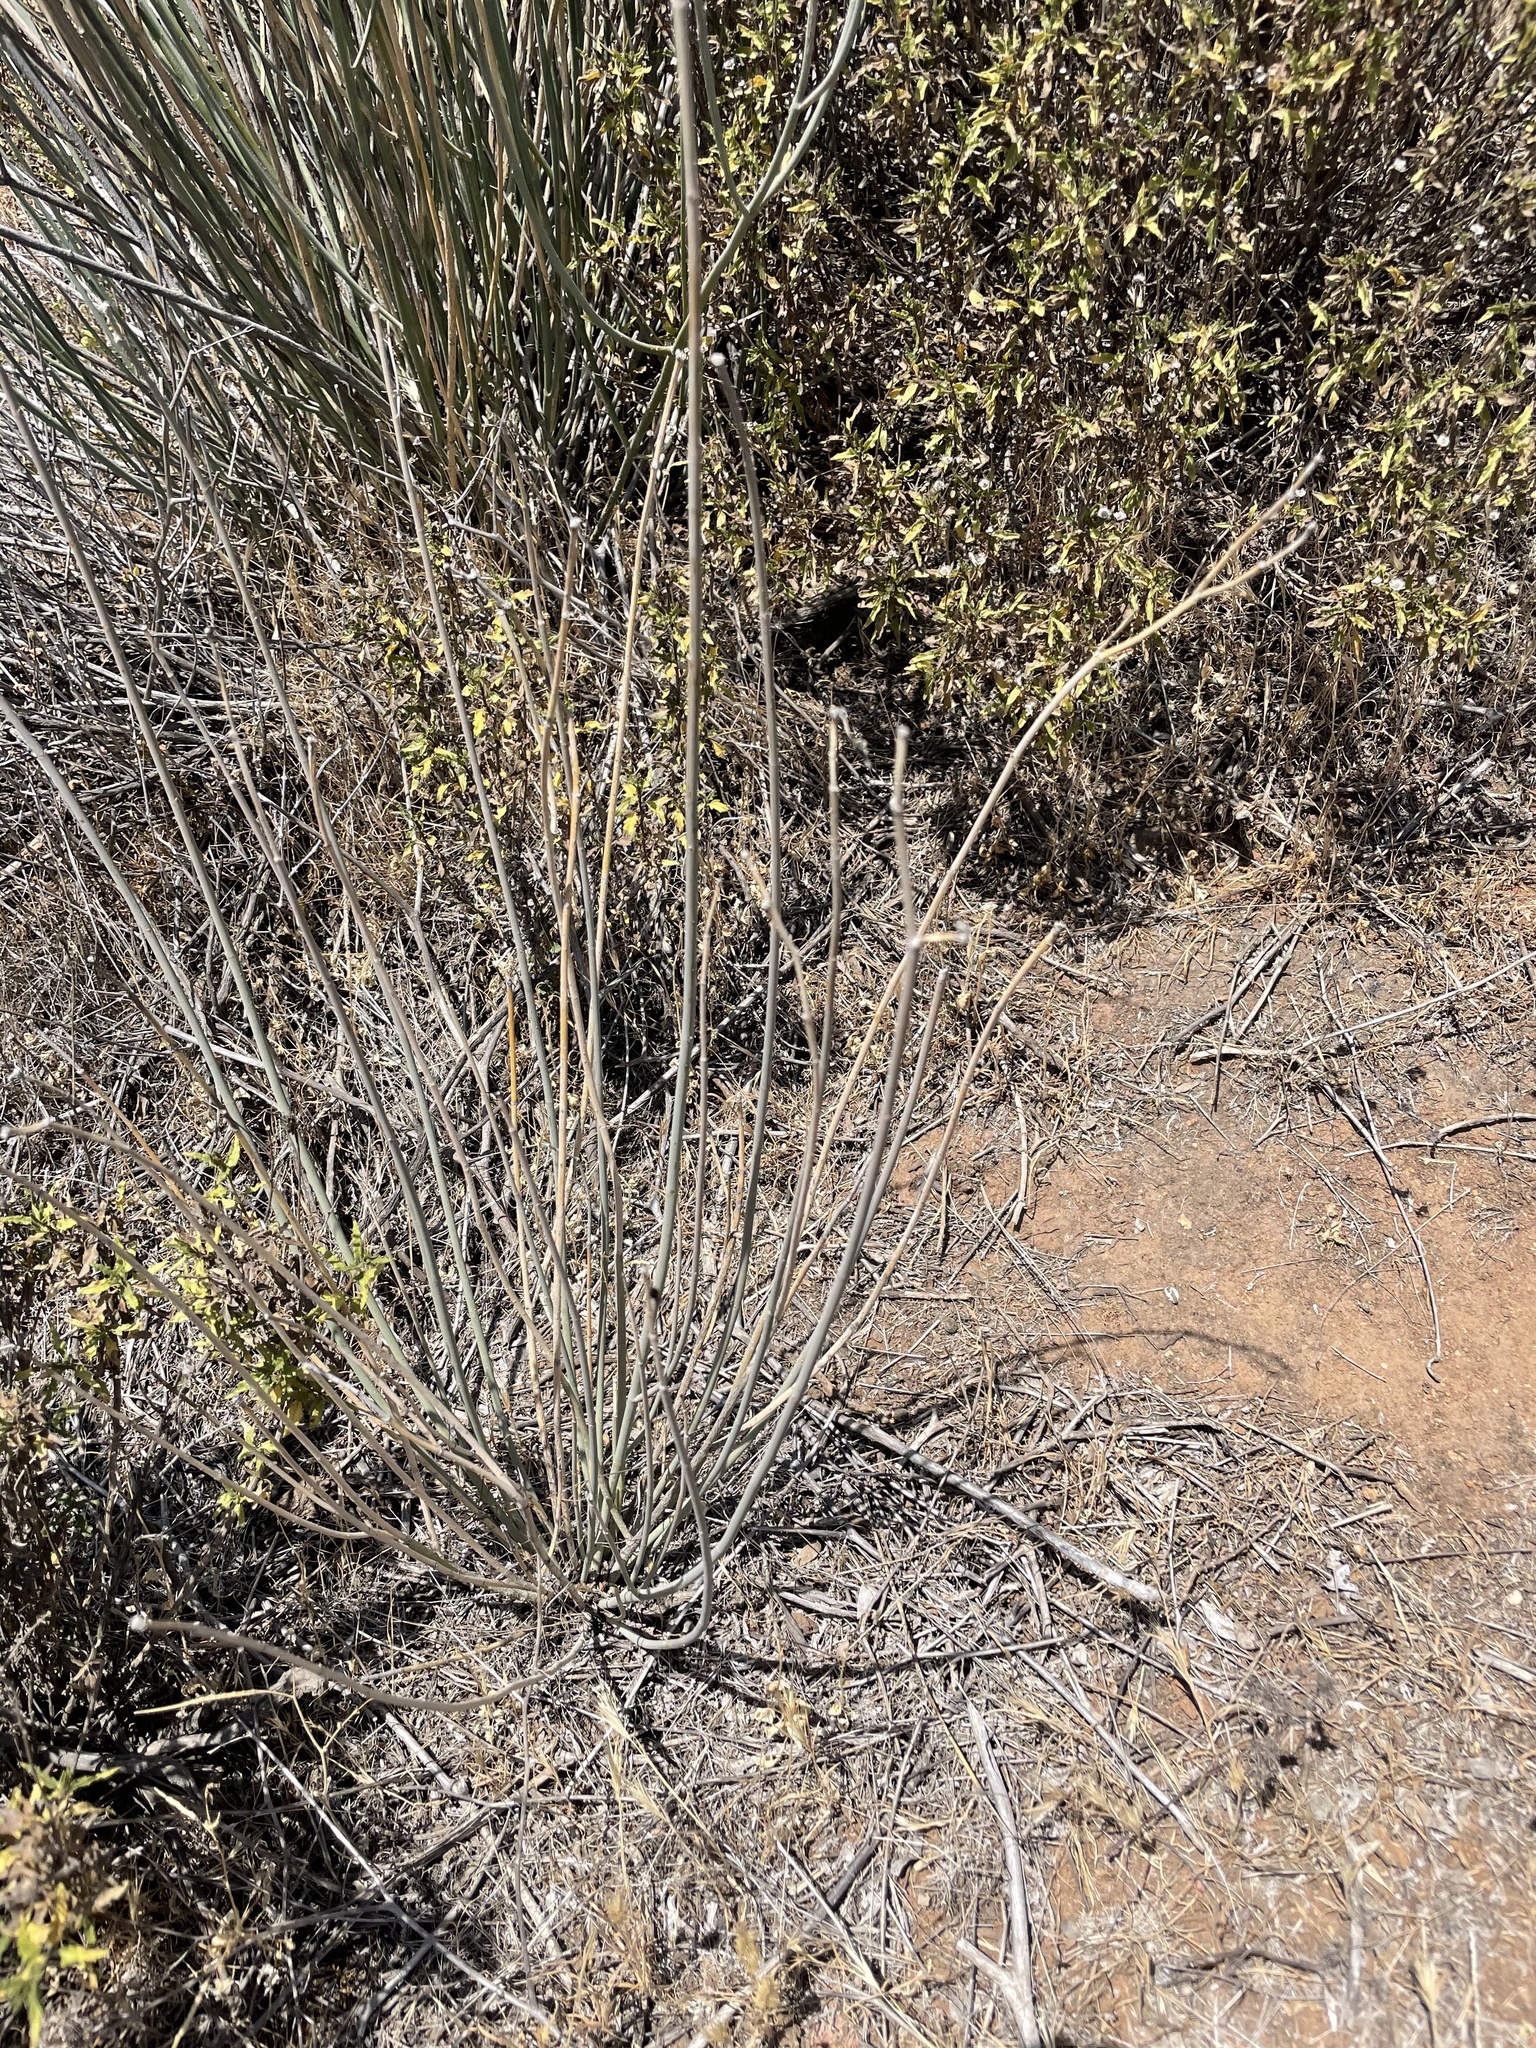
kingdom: Plantae
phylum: Tracheophyta
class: Magnoliopsida
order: Gentianales
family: Apocynaceae
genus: Asclepias
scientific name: Asclepias subulata
